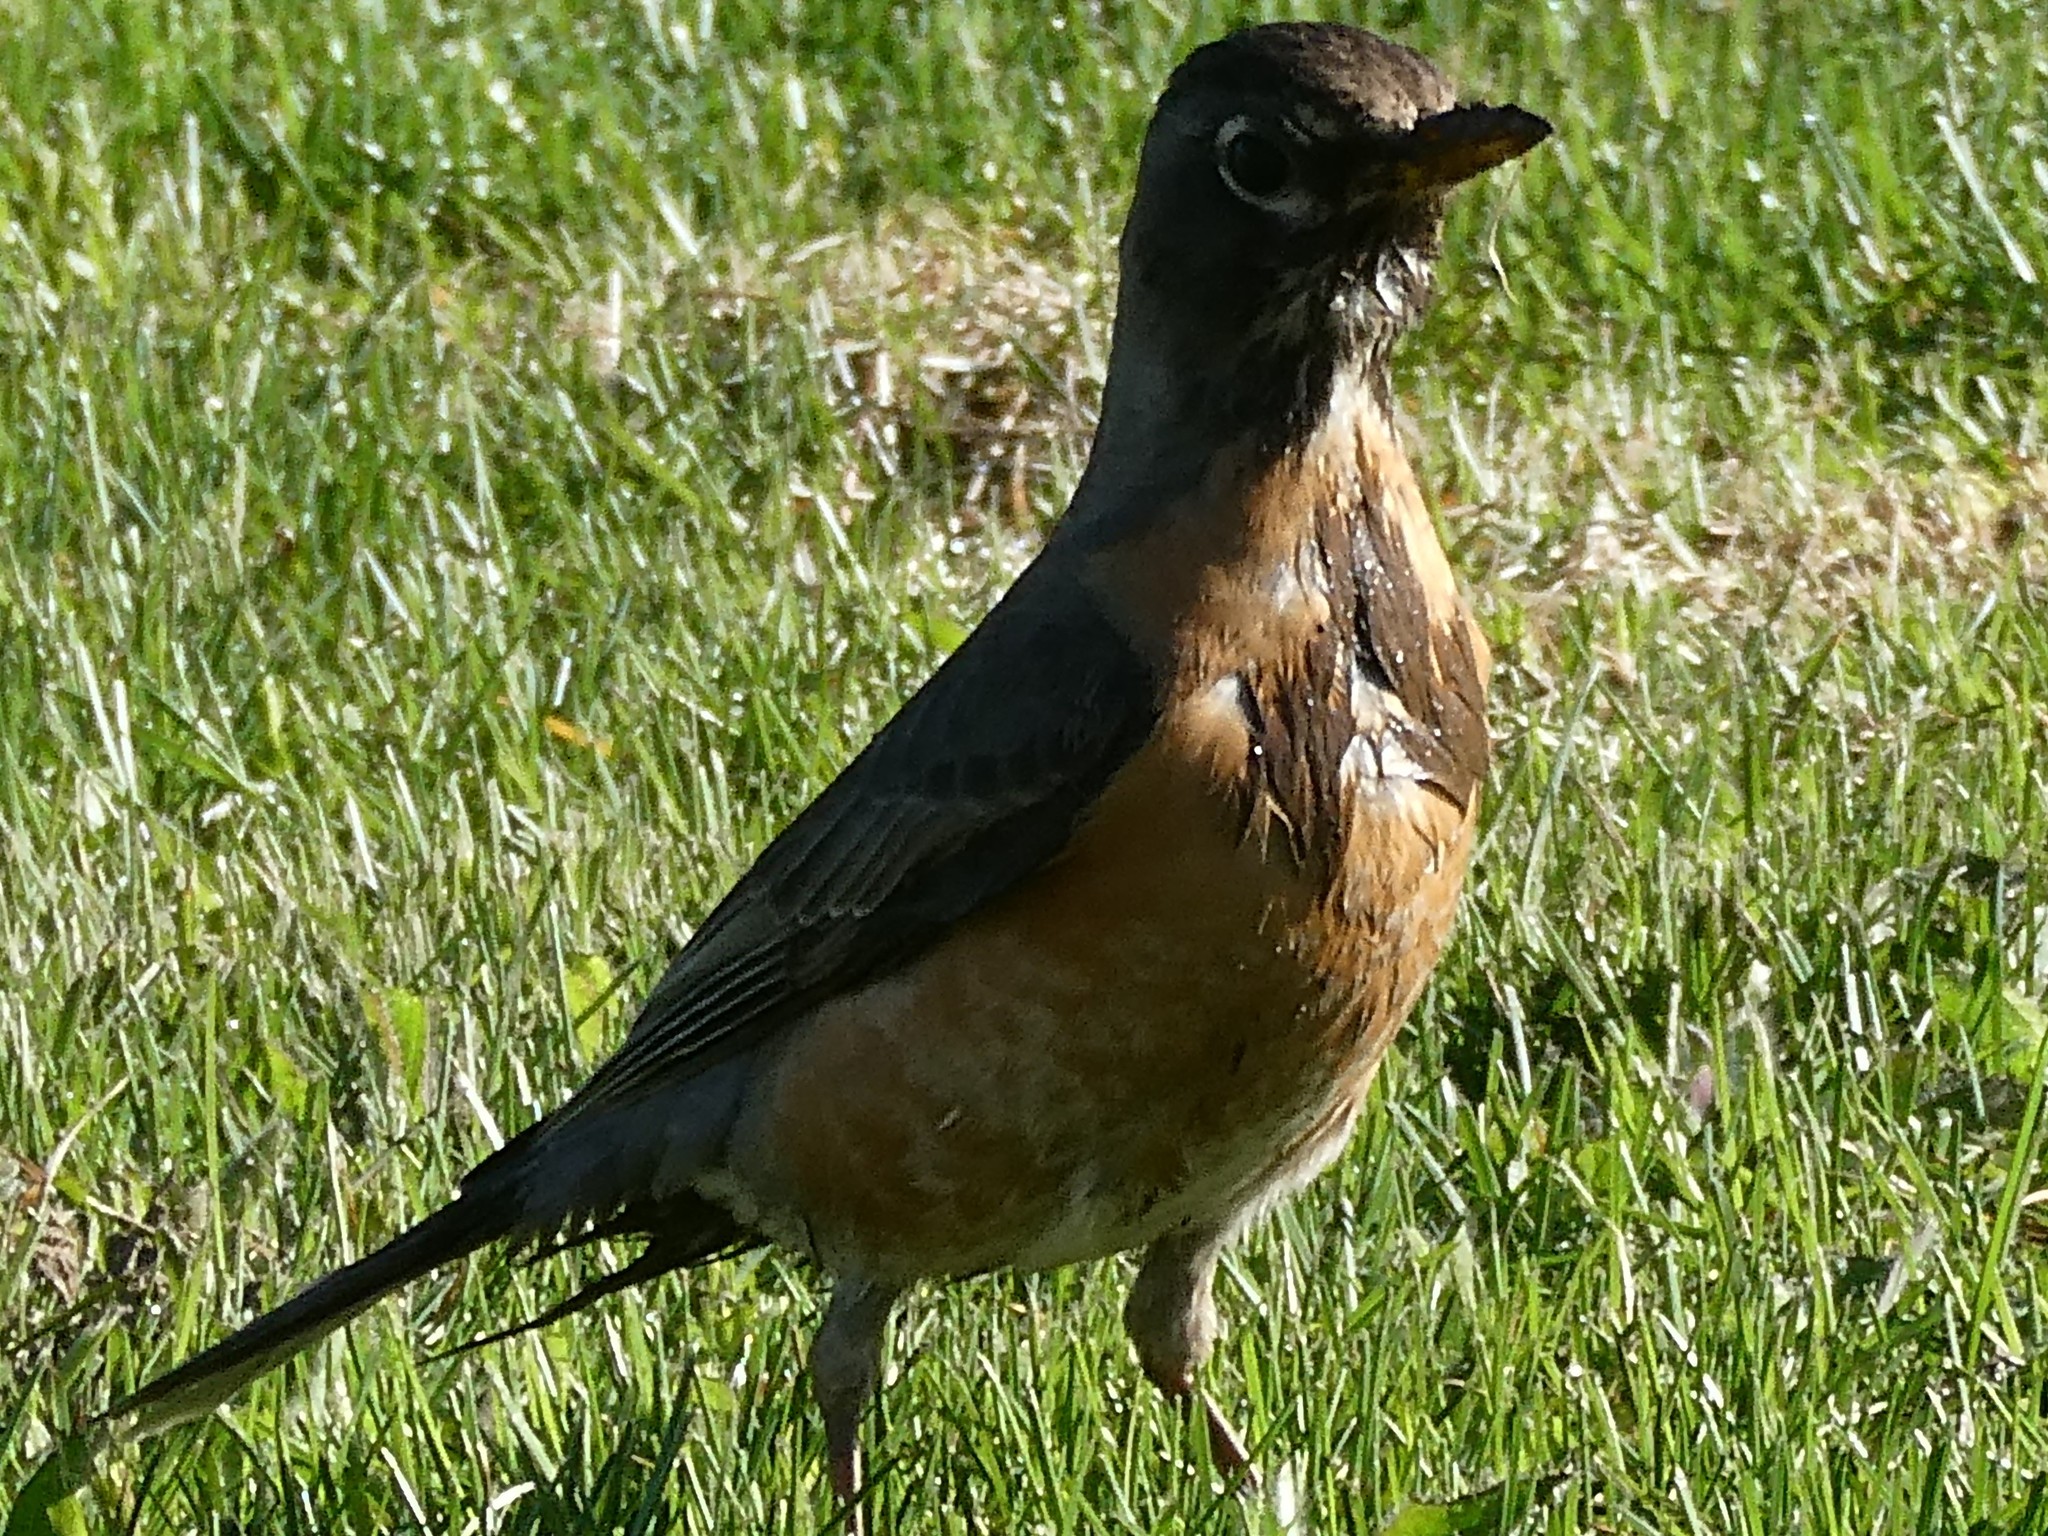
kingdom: Animalia
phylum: Chordata
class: Aves
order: Passeriformes
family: Turdidae
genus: Turdus
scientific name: Turdus migratorius
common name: American robin
